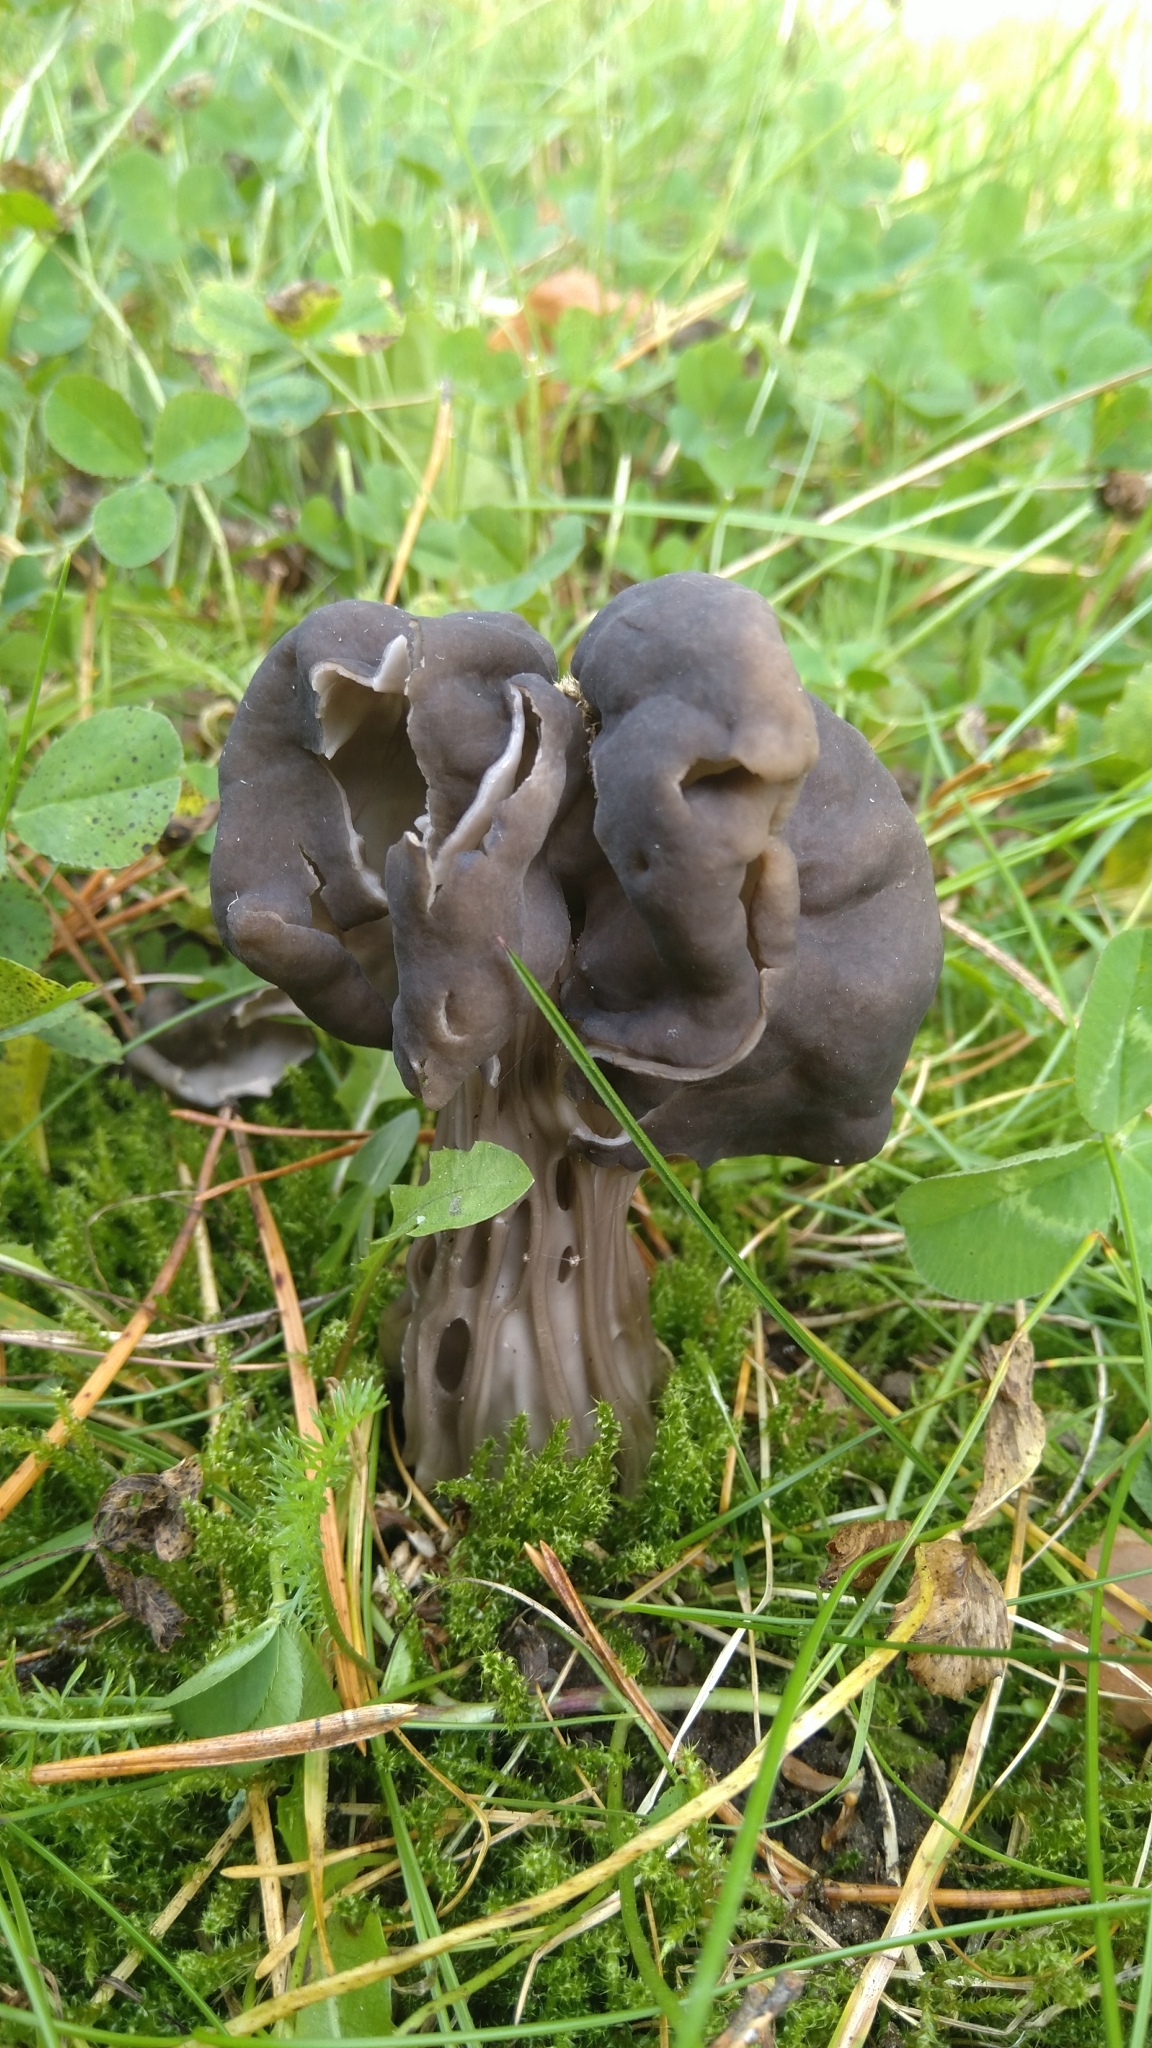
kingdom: Fungi
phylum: Ascomycota
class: Pezizomycetes
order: Pezizales
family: Helvellaceae
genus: Helvella
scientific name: Helvella lacunosa
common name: Elfin saddle
